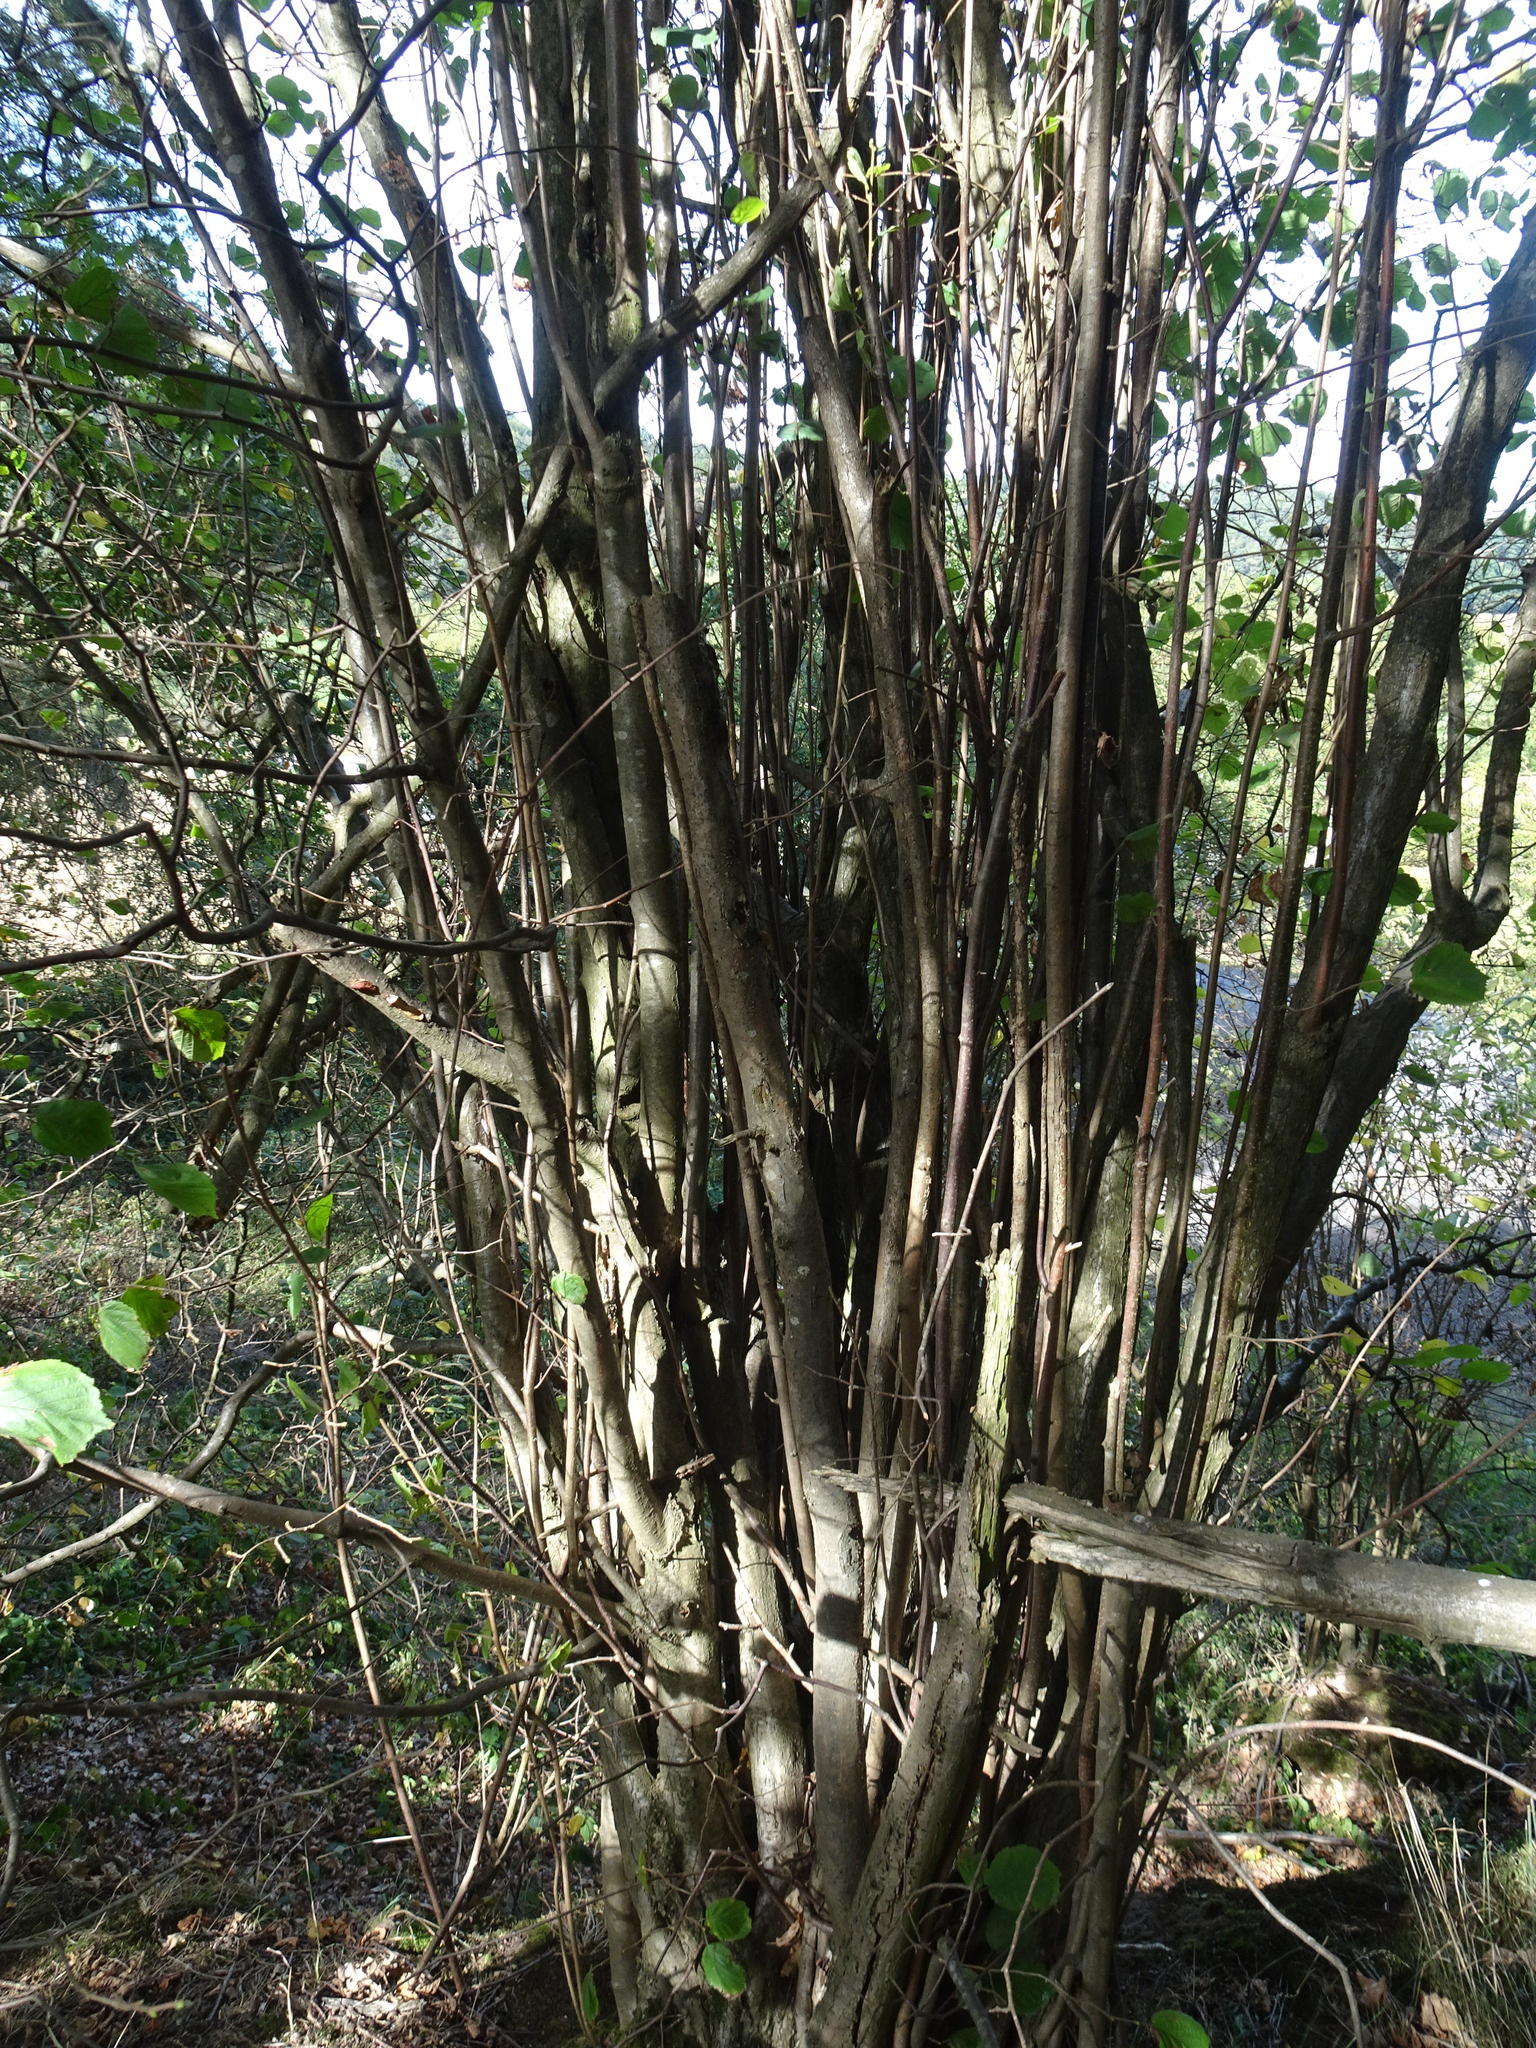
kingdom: Plantae
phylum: Tracheophyta
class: Magnoliopsida
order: Fagales
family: Betulaceae
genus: Corylus
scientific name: Corylus avellana
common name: European hazel
